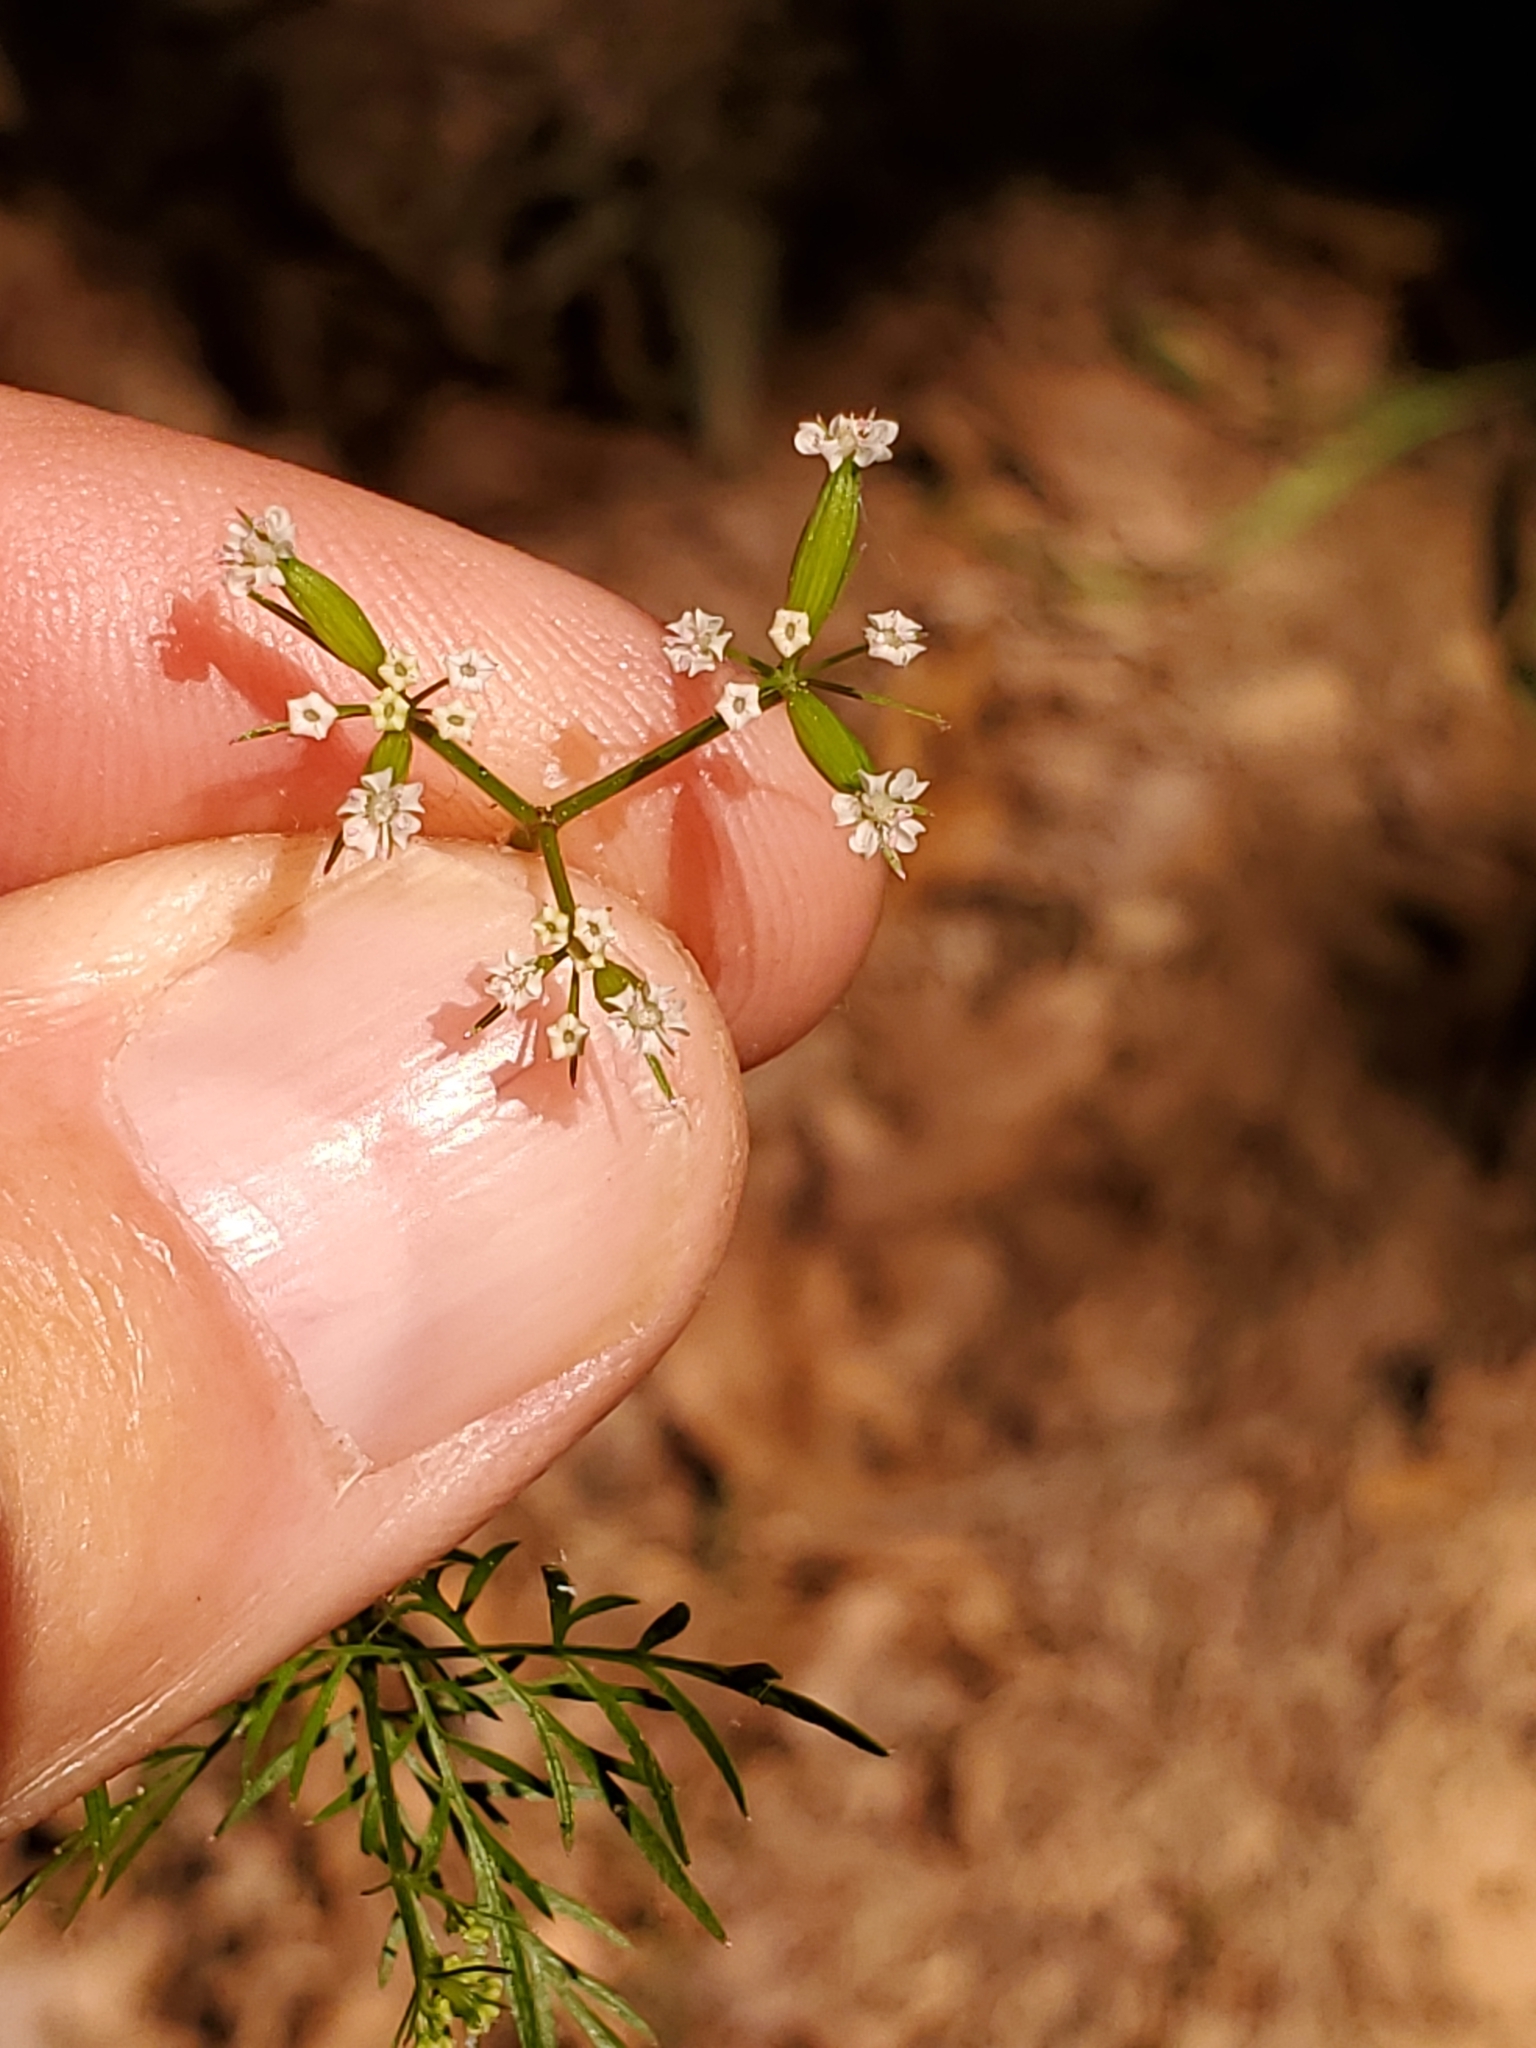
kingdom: Plantae
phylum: Tracheophyta
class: Magnoliopsida
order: Apiales
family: Apiaceae
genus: Trepocarpus
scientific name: Trepocarpus aethusae
